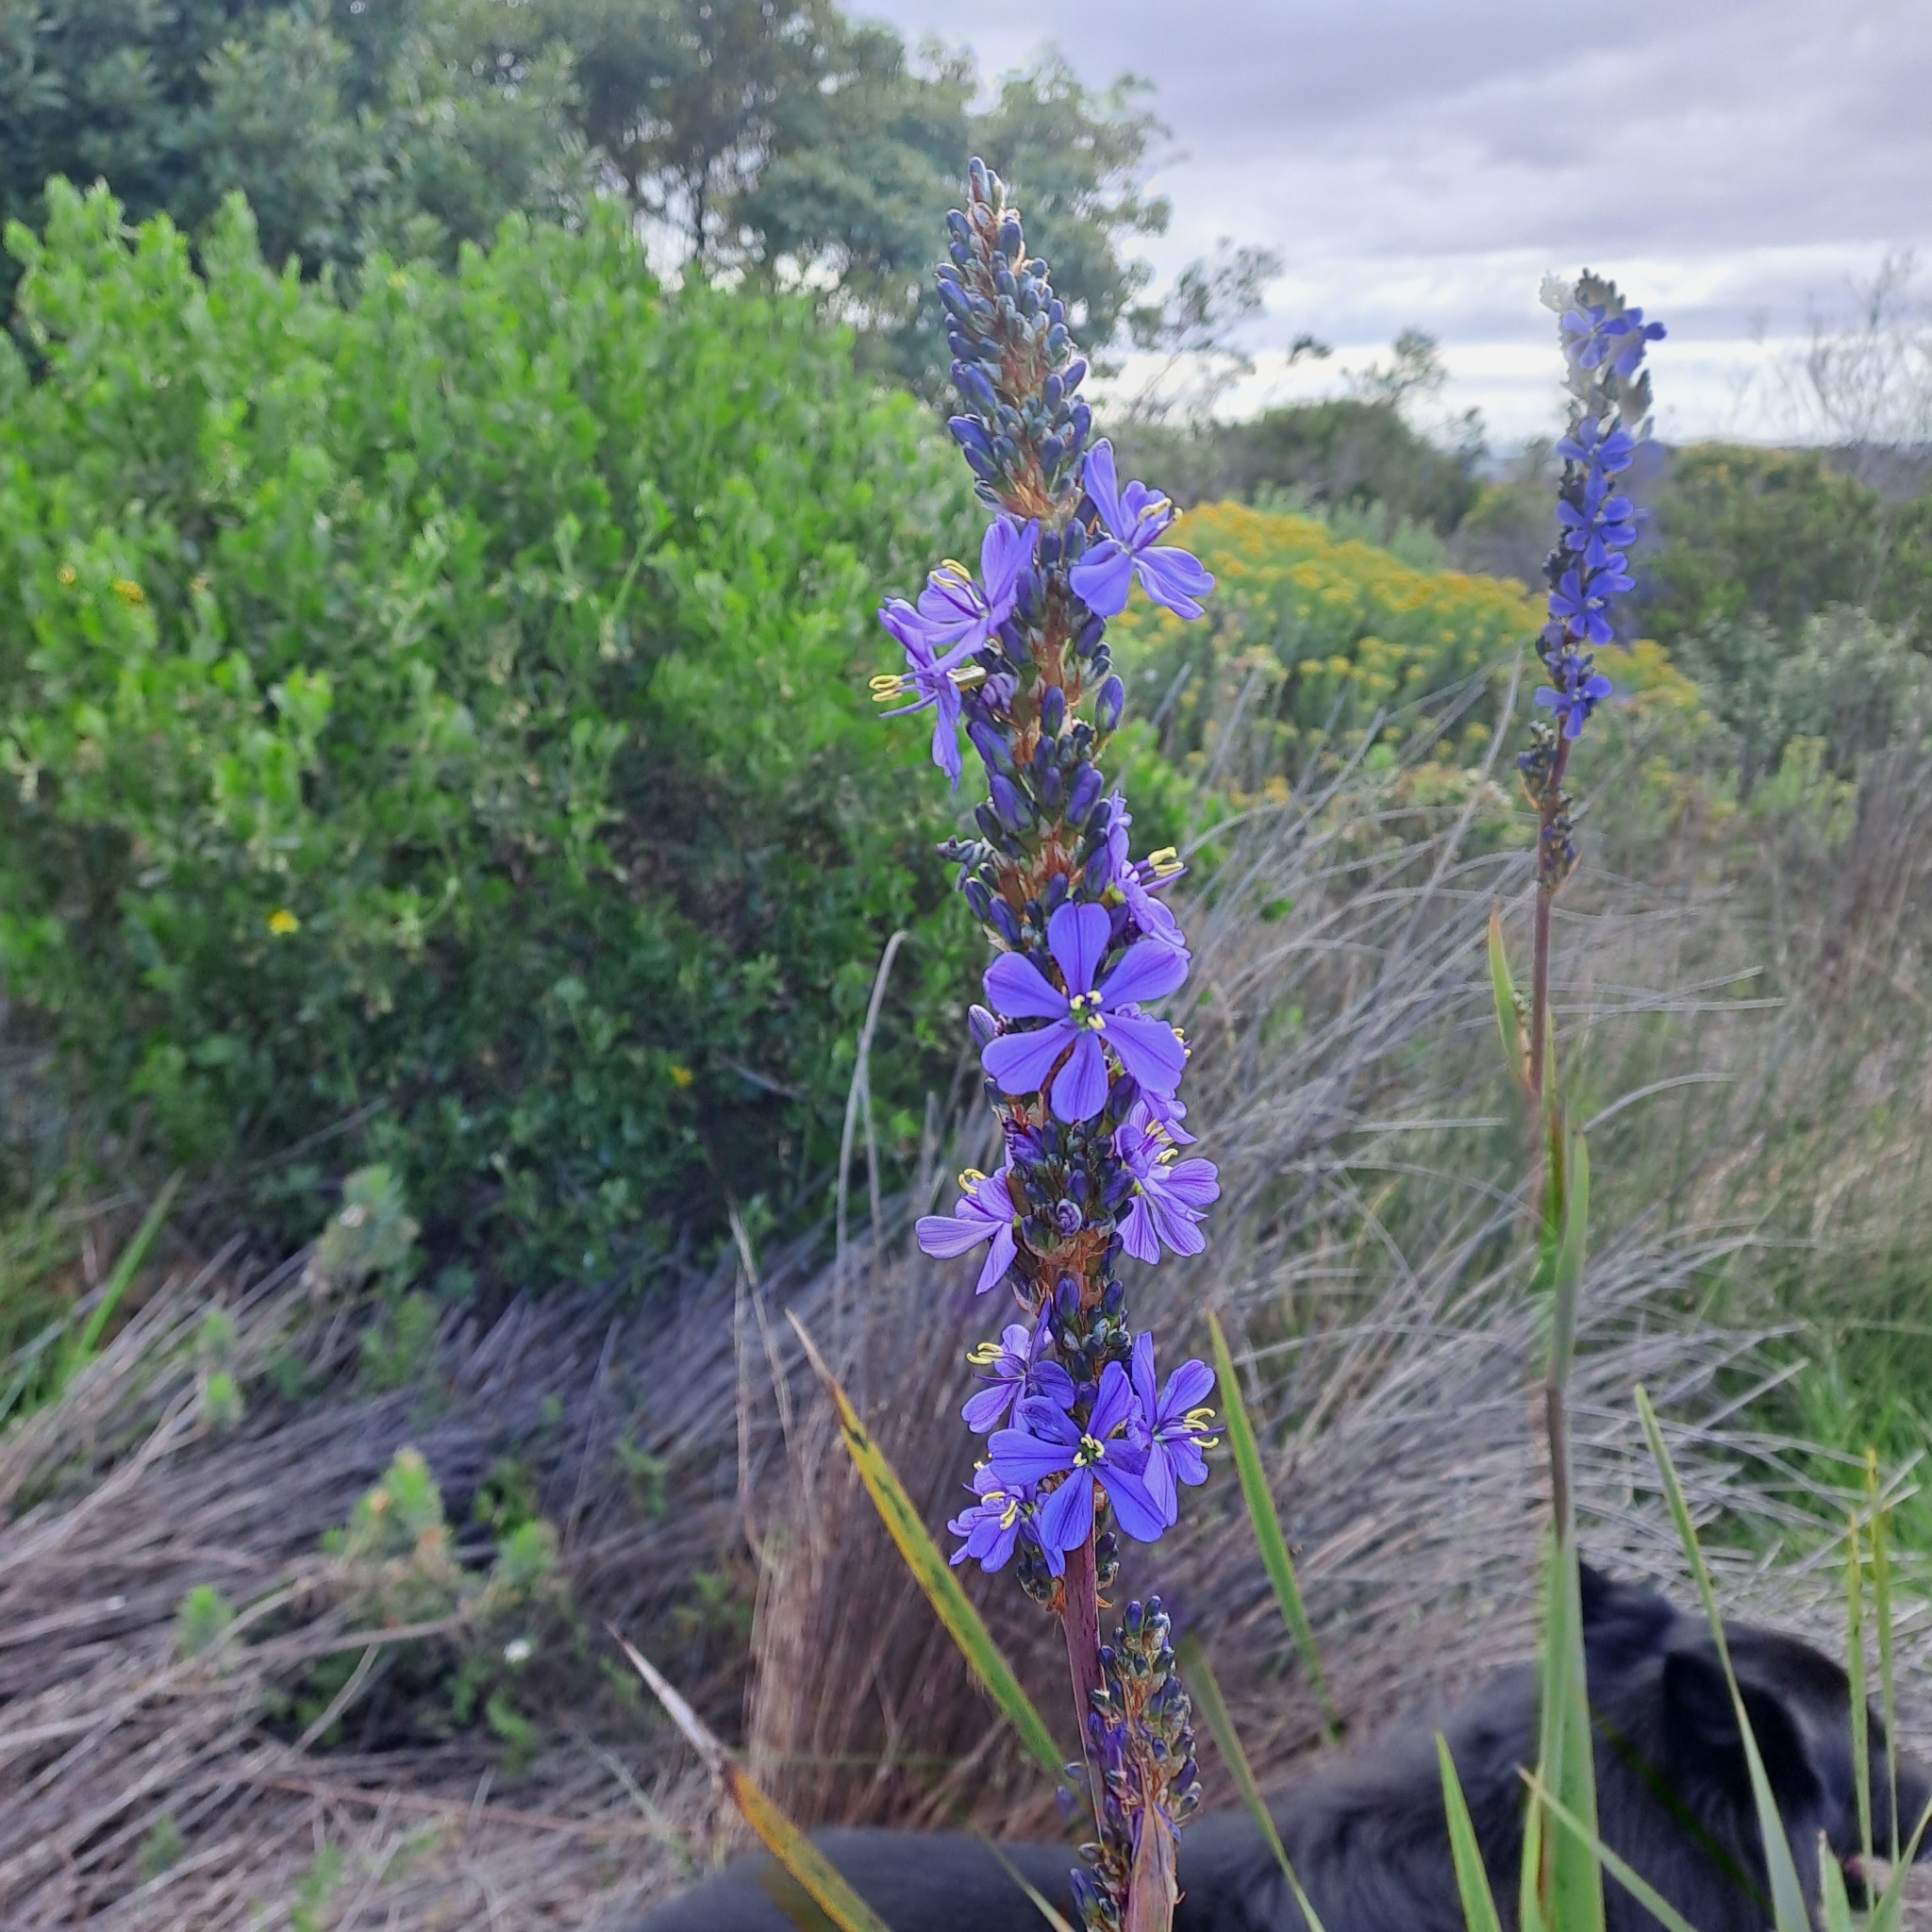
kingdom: Plantae
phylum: Tracheophyta
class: Liliopsida
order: Asparagales
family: Iridaceae
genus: Aristea
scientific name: Aristea capitata
